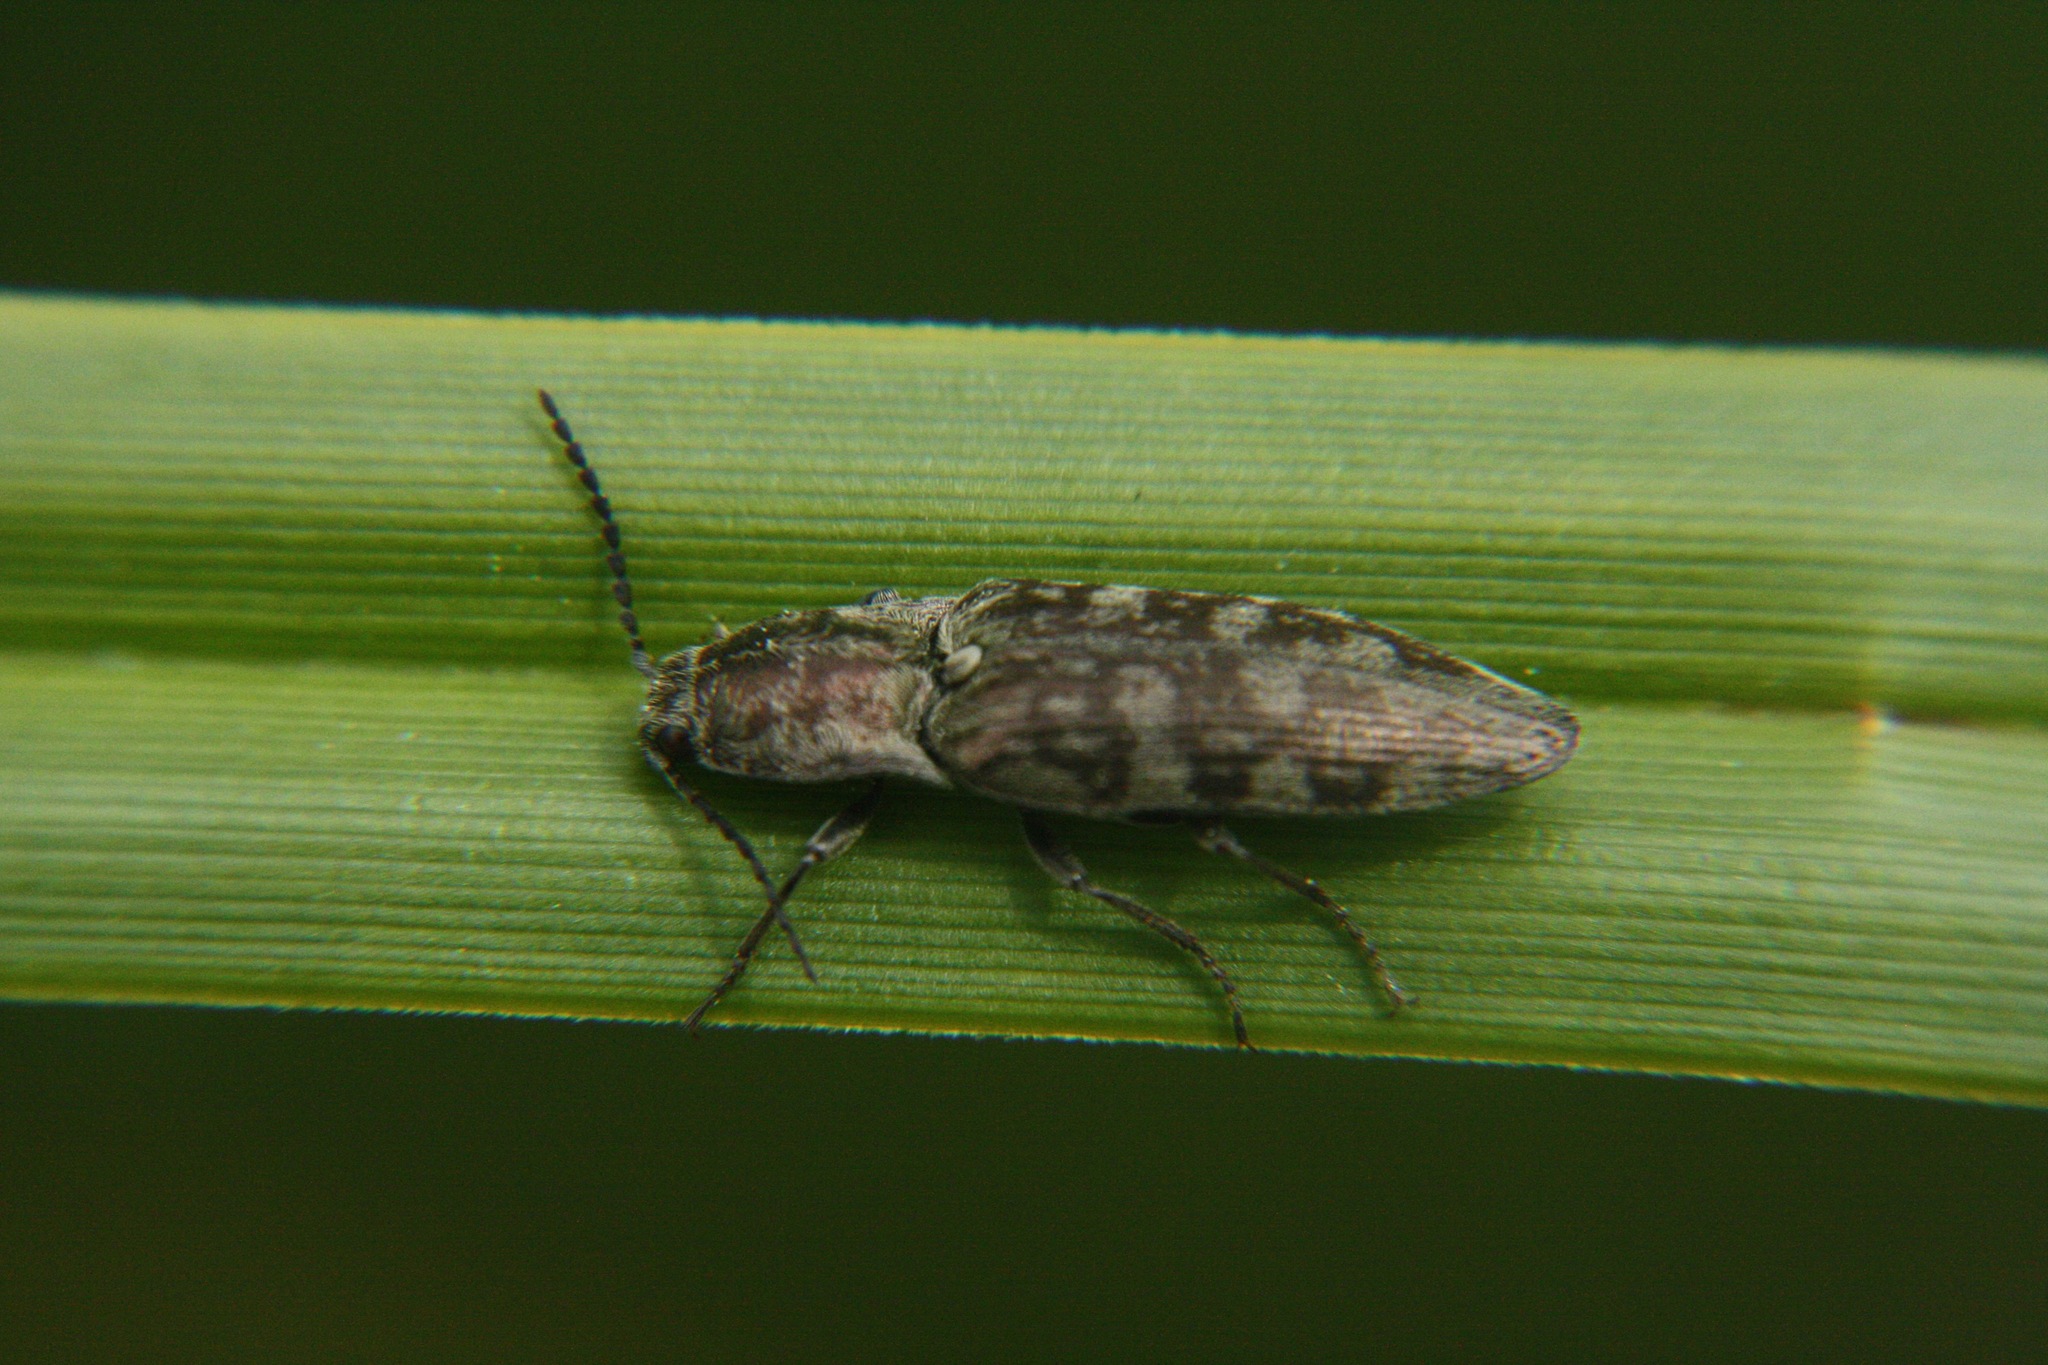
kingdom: Animalia
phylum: Arthropoda
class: Insecta
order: Coleoptera
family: Elateridae
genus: Actenicerus
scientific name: Actenicerus sjaelandicus
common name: Marsh click beetle
